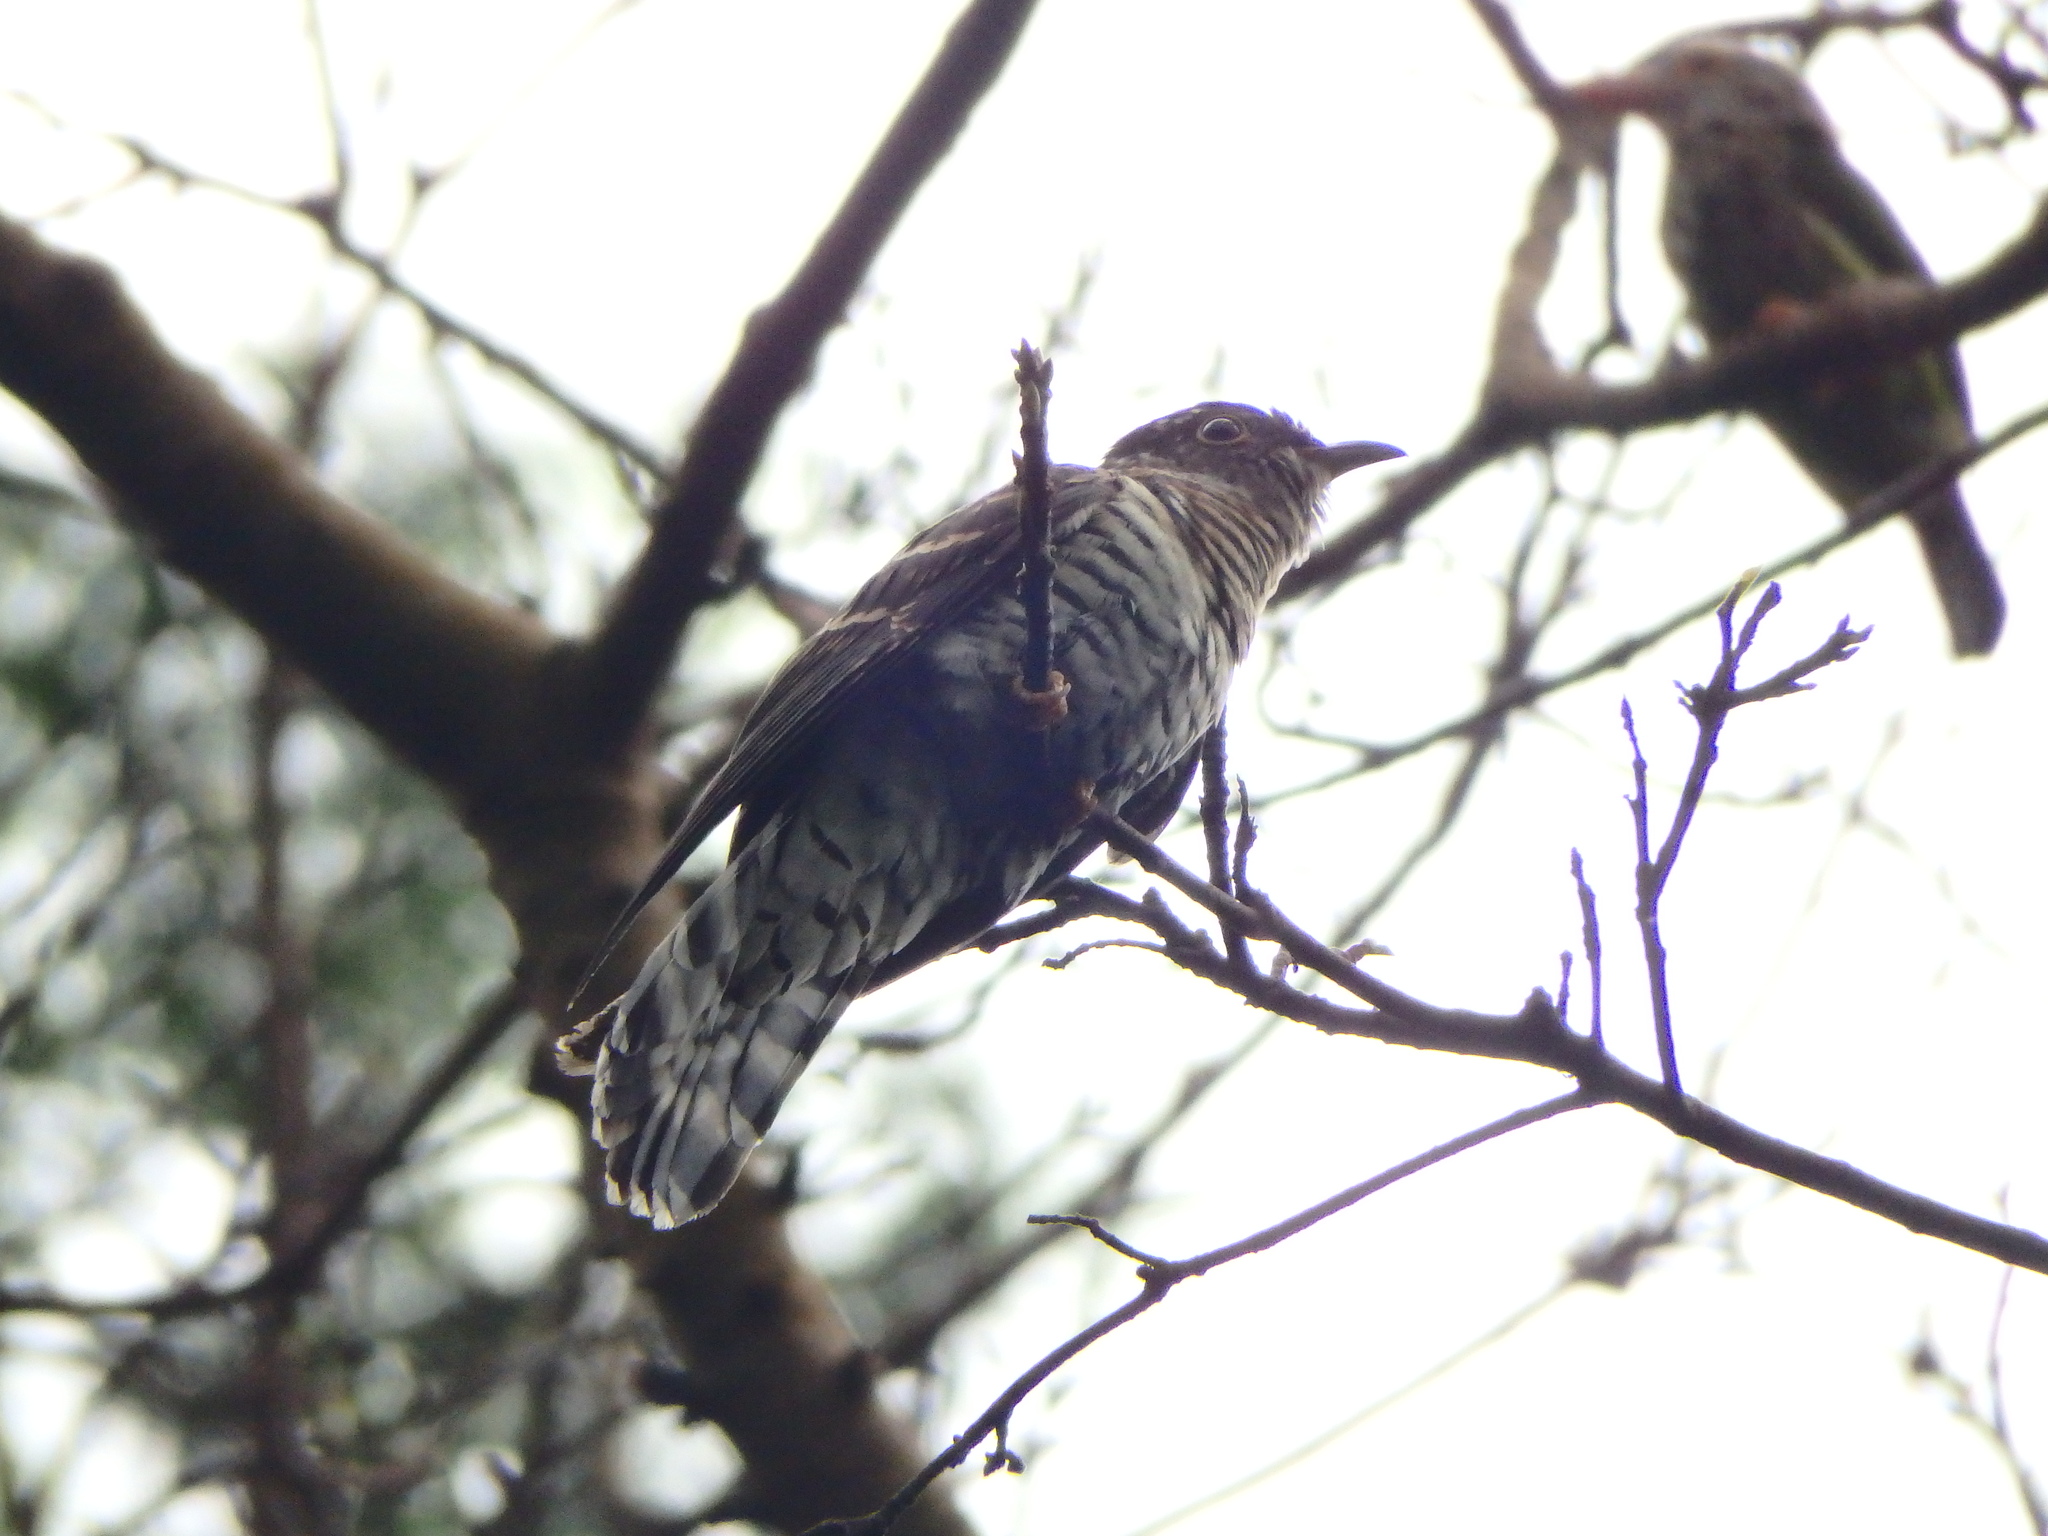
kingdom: Animalia
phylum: Chordata
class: Aves
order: Cuculiformes
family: Cuculidae
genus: Cuculus
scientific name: Cuculus micropterus
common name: Indian cuckoo
